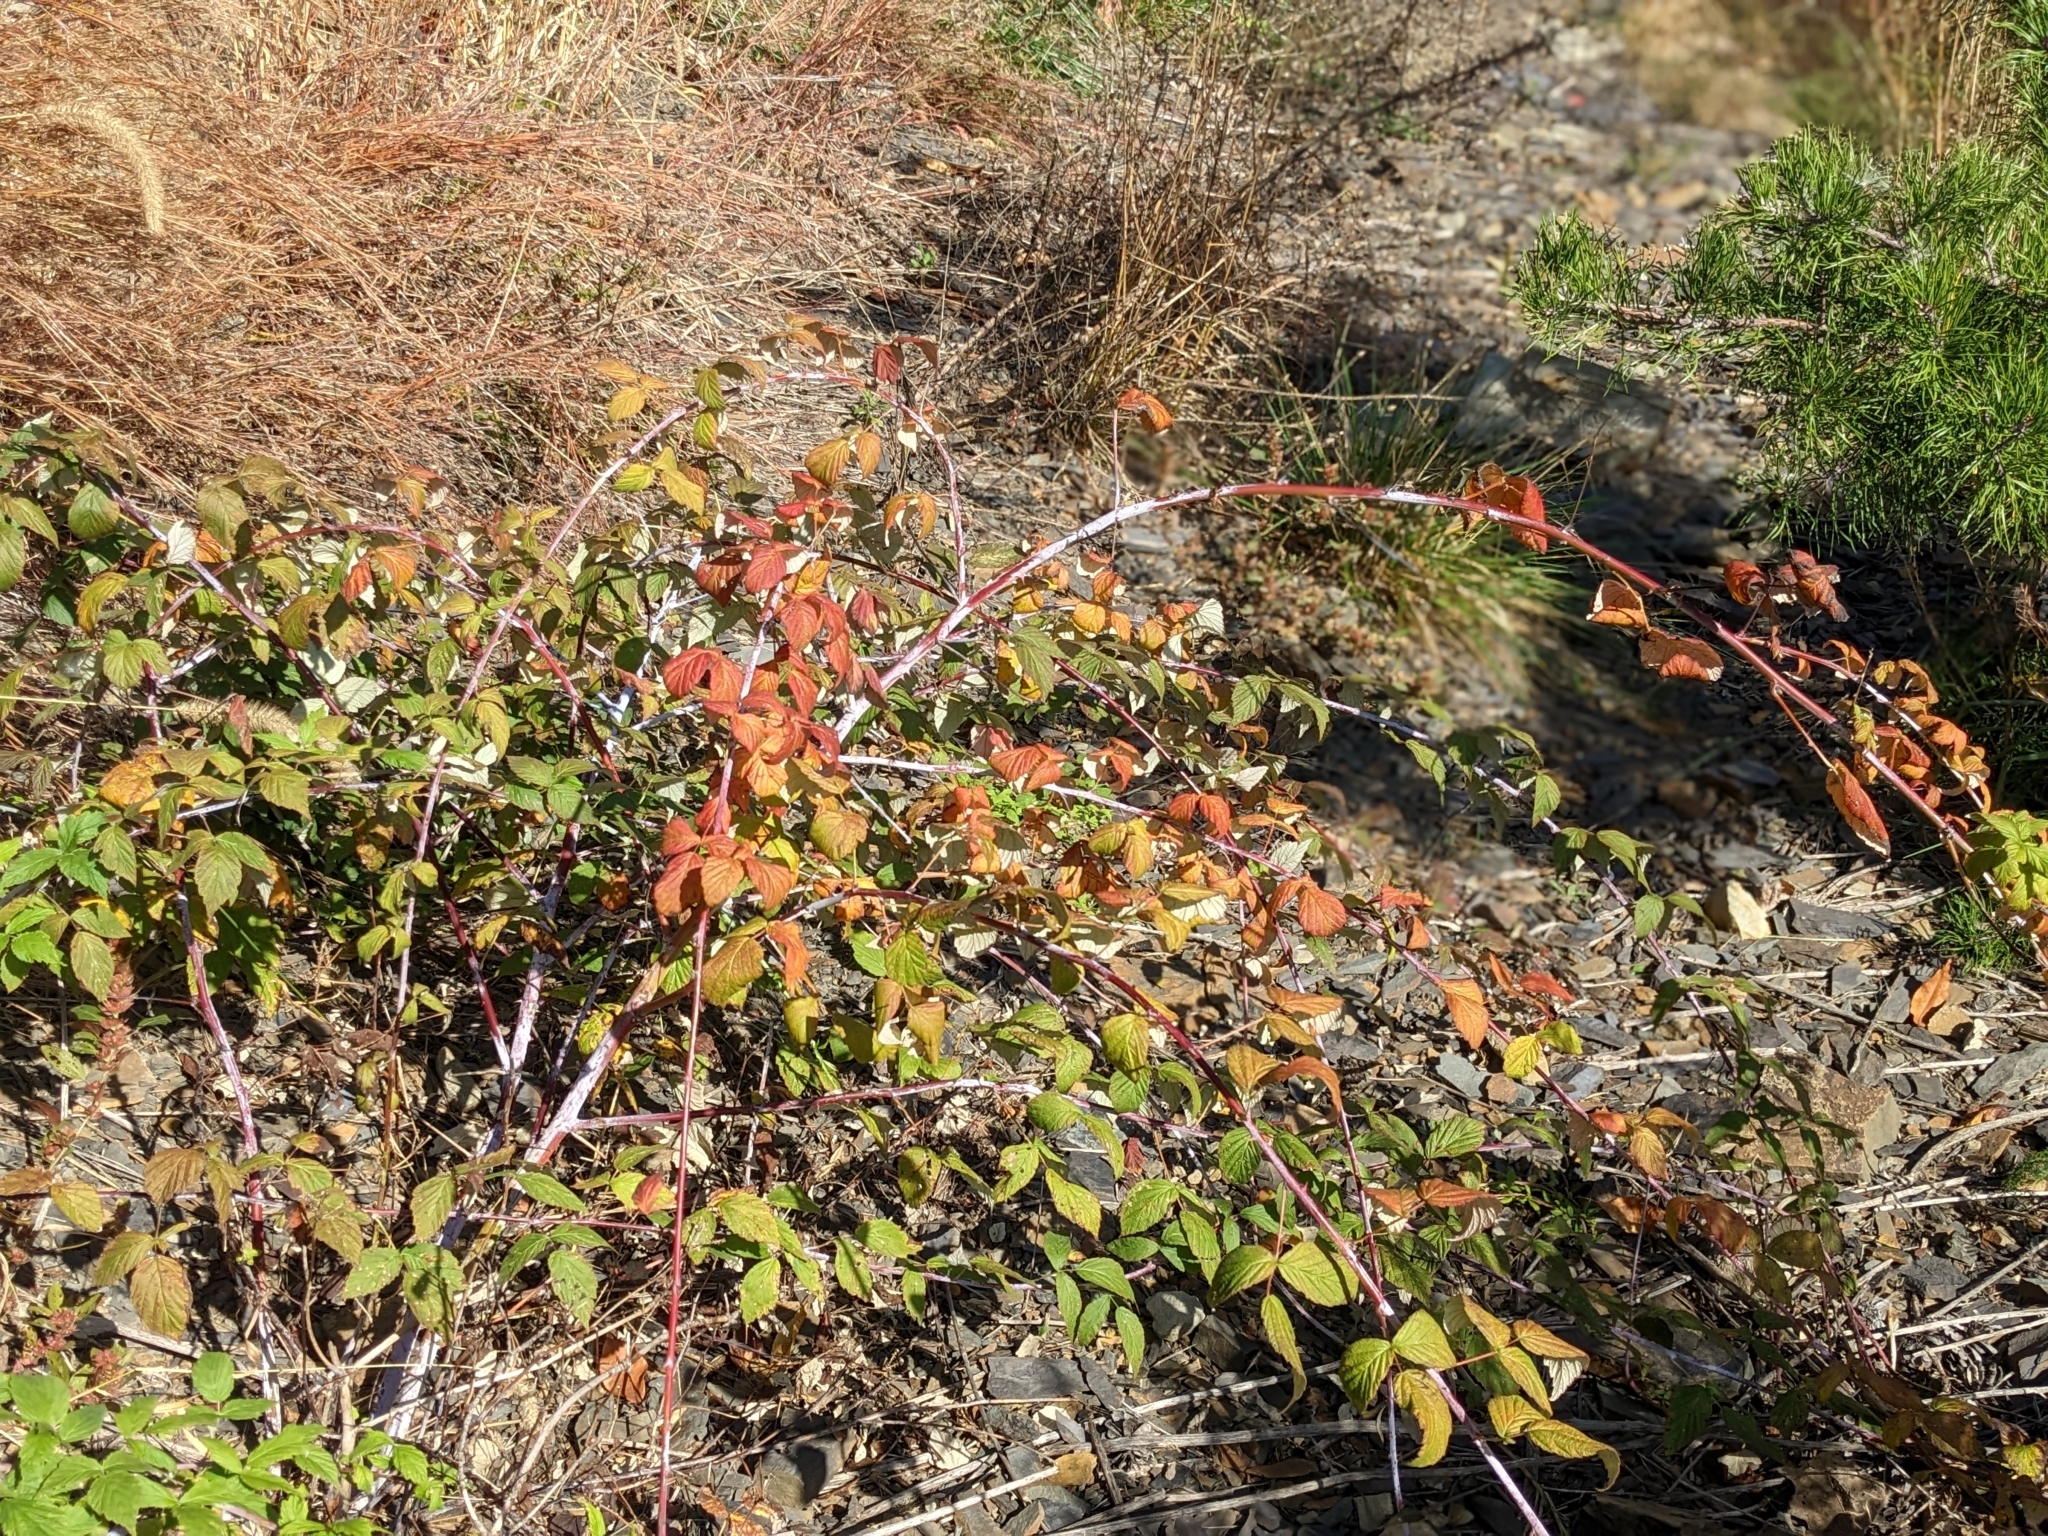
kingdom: Plantae
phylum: Tracheophyta
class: Magnoliopsida
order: Rosales
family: Rosaceae
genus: Rubus
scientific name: Rubus occidentalis
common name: Black raspberry
